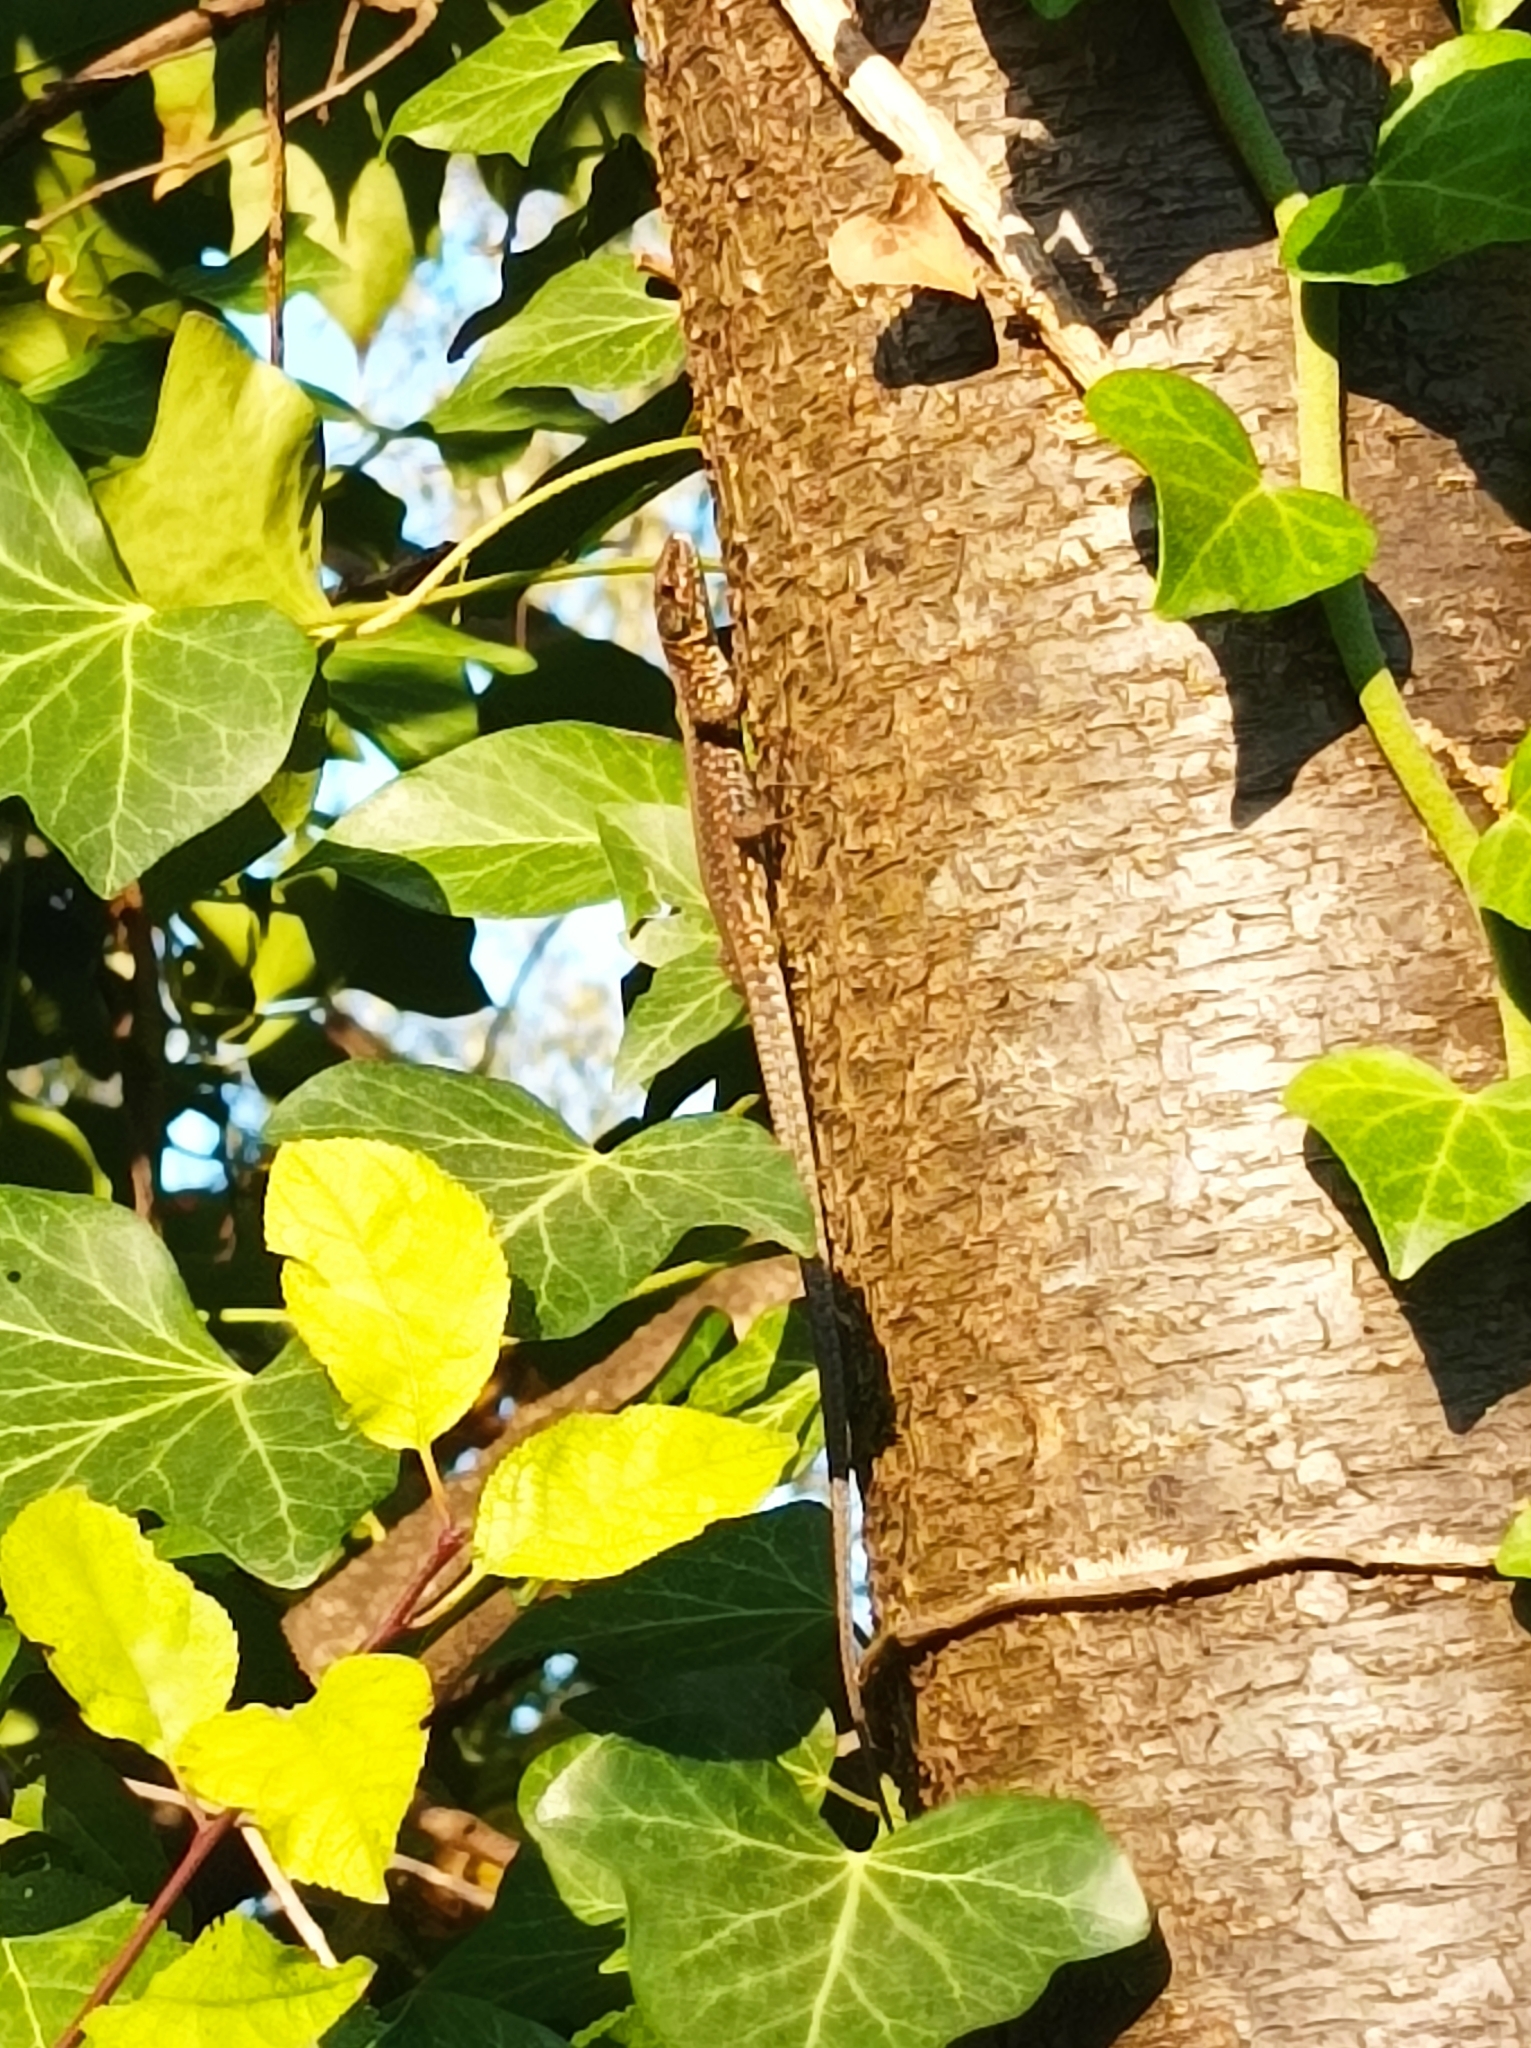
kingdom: Animalia
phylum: Chordata
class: Squamata
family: Lacertidae
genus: Podarcis
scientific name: Podarcis muralis
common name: Common wall lizard
